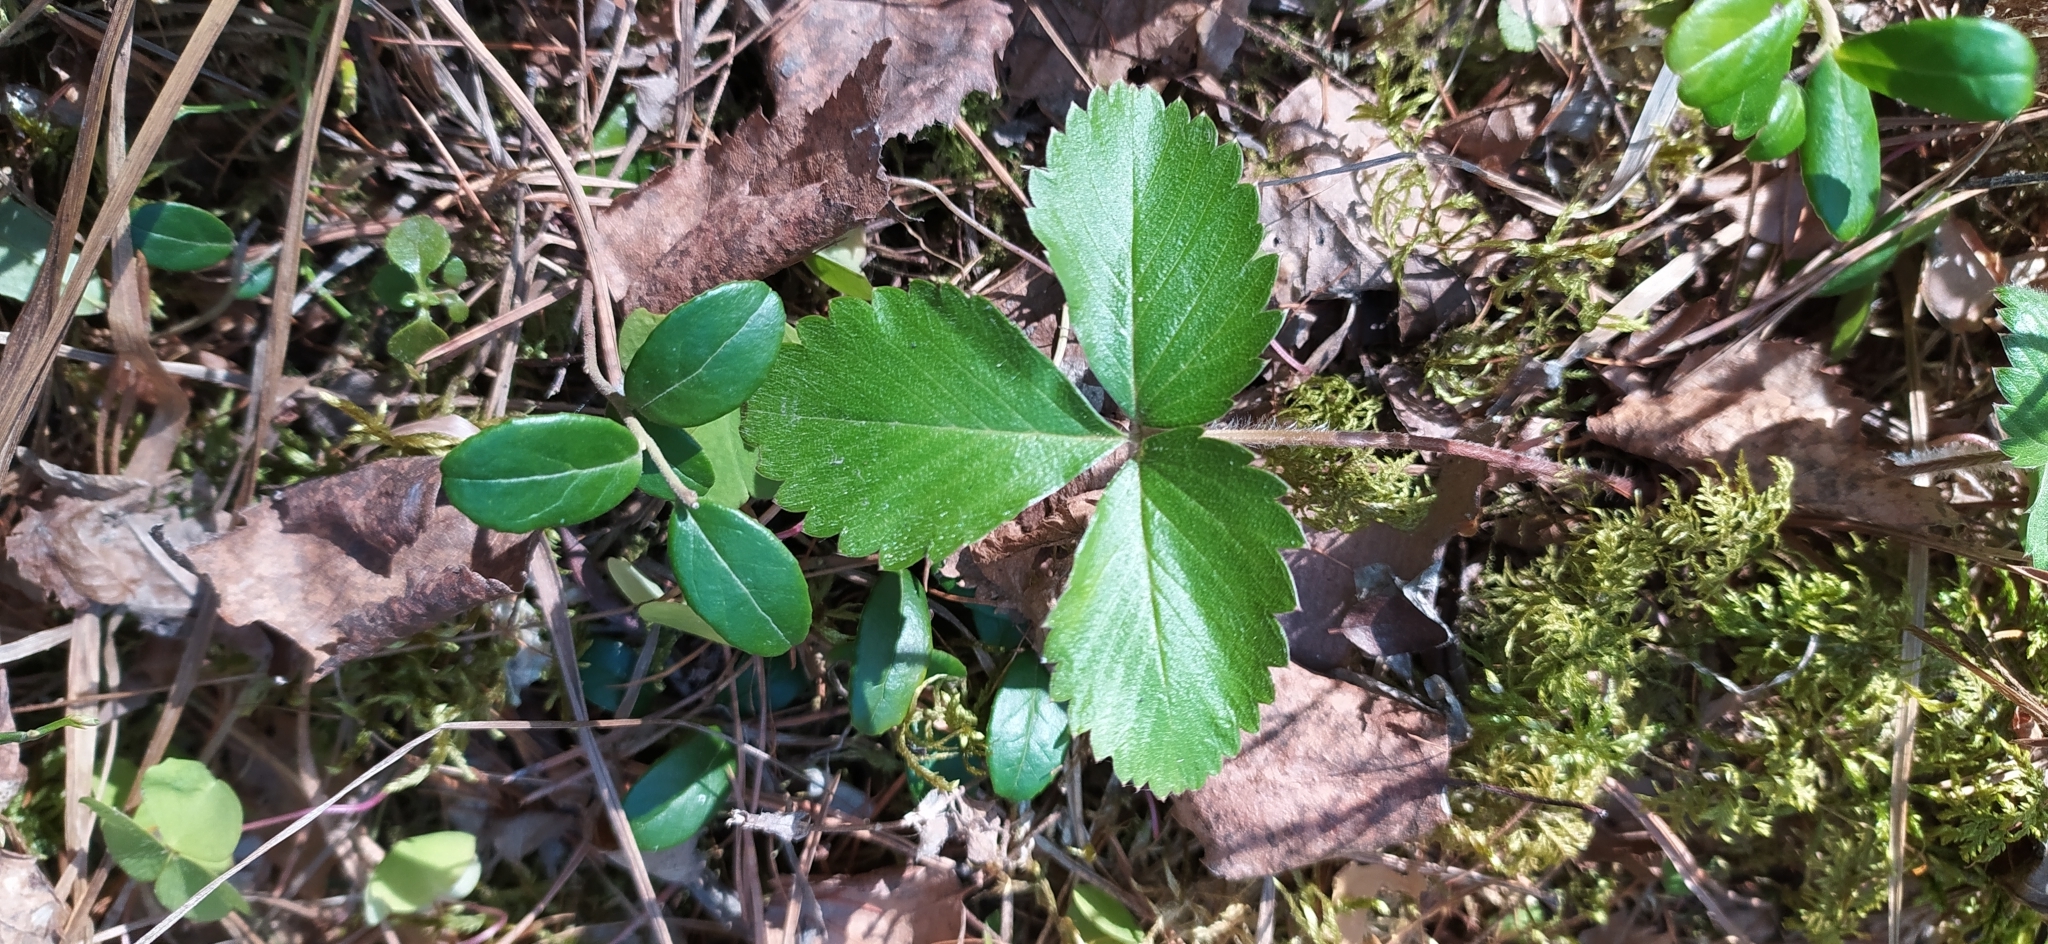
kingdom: Plantae
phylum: Tracheophyta
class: Magnoliopsida
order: Rosales
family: Rosaceae
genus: Fragaria
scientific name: Fragaria vesca
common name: Wild strawberry
